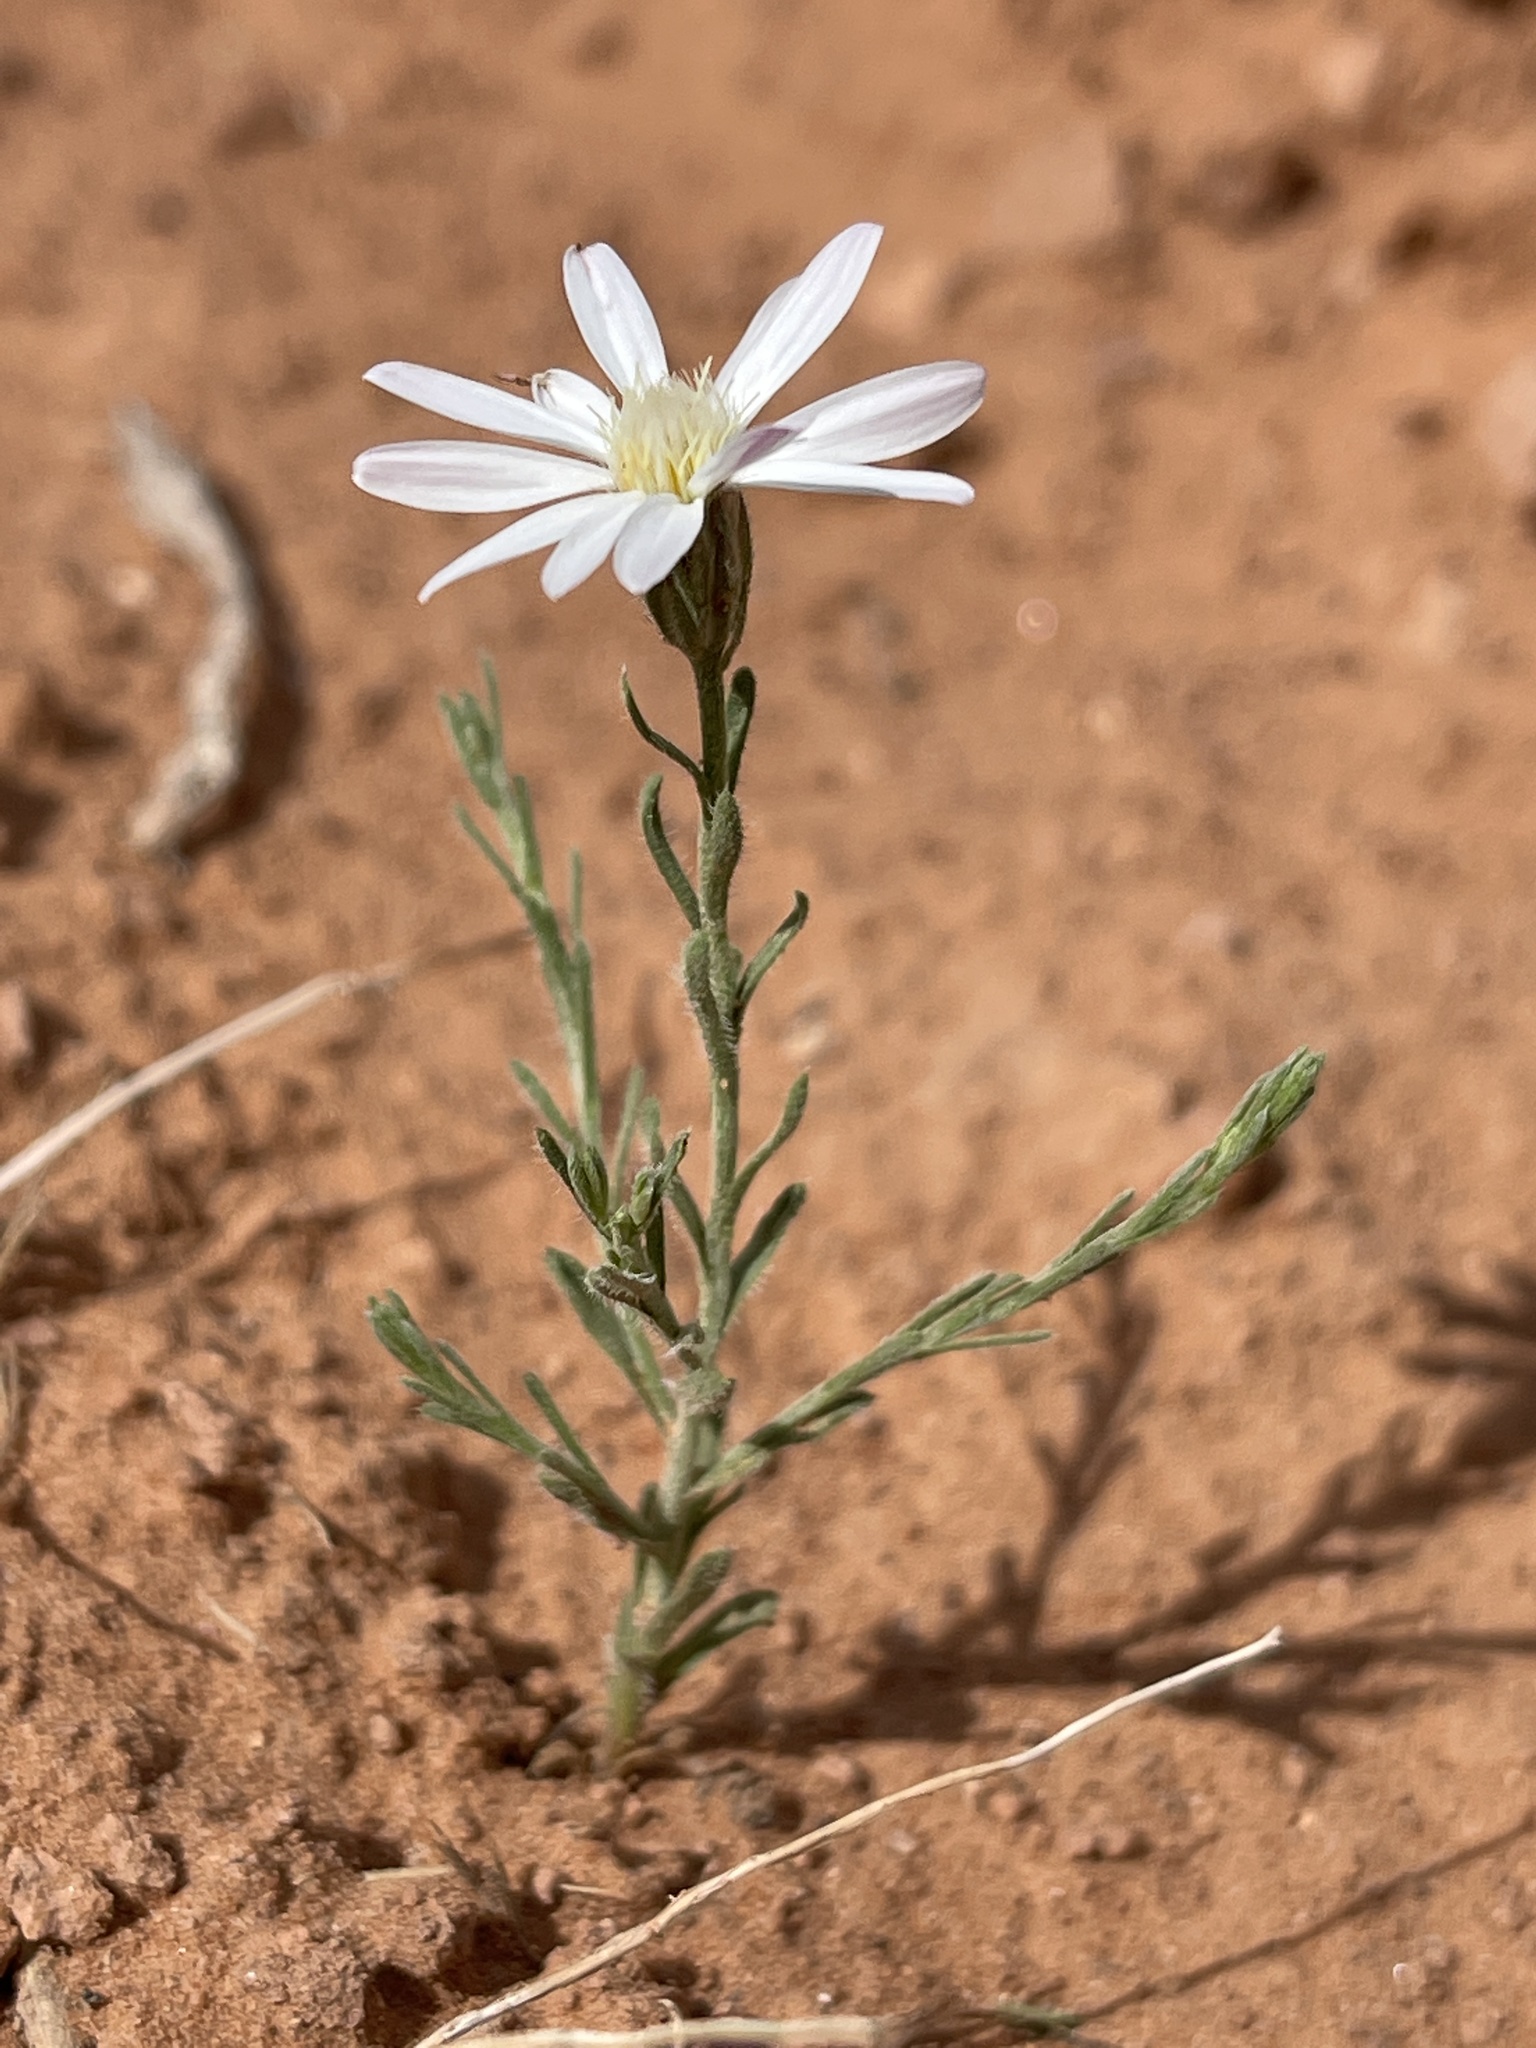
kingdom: Plantae
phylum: Tracheophyta
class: Magnoliopsida
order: Asterales
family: Asteraceae
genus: Chaetopappa
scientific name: Chaetopappa ericoides
